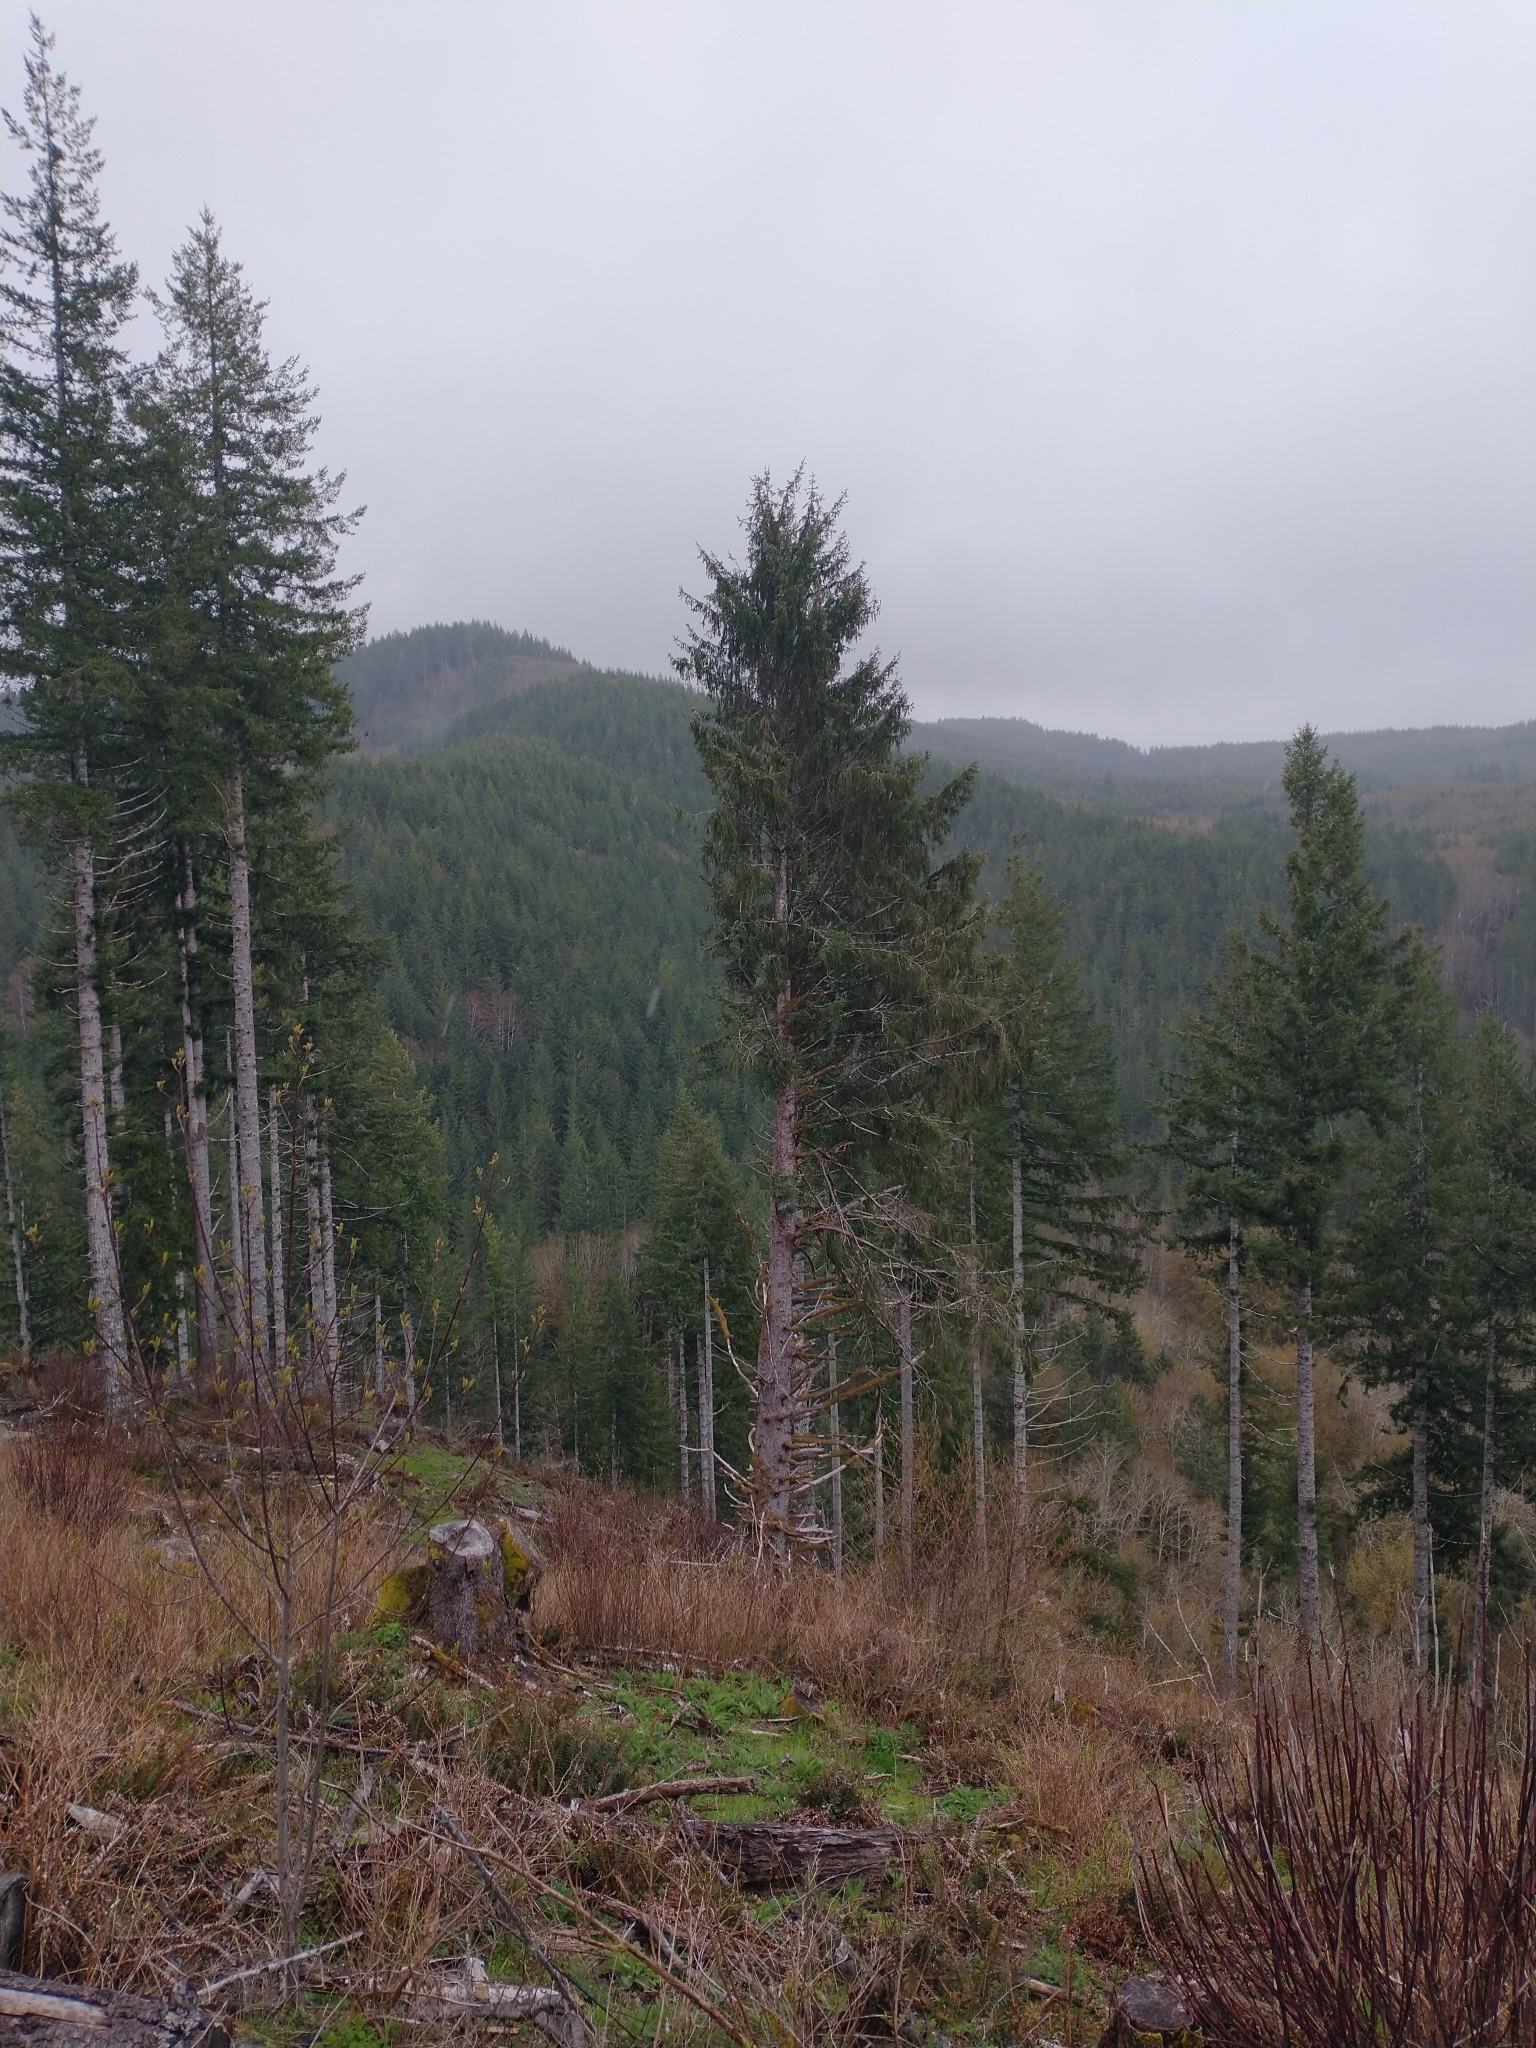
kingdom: Plantae
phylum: Tracheophyta
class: Pinopsida
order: Pinales
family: Pinaceae
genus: Picea
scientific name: Picea sitchensis
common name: Sitka spruce
